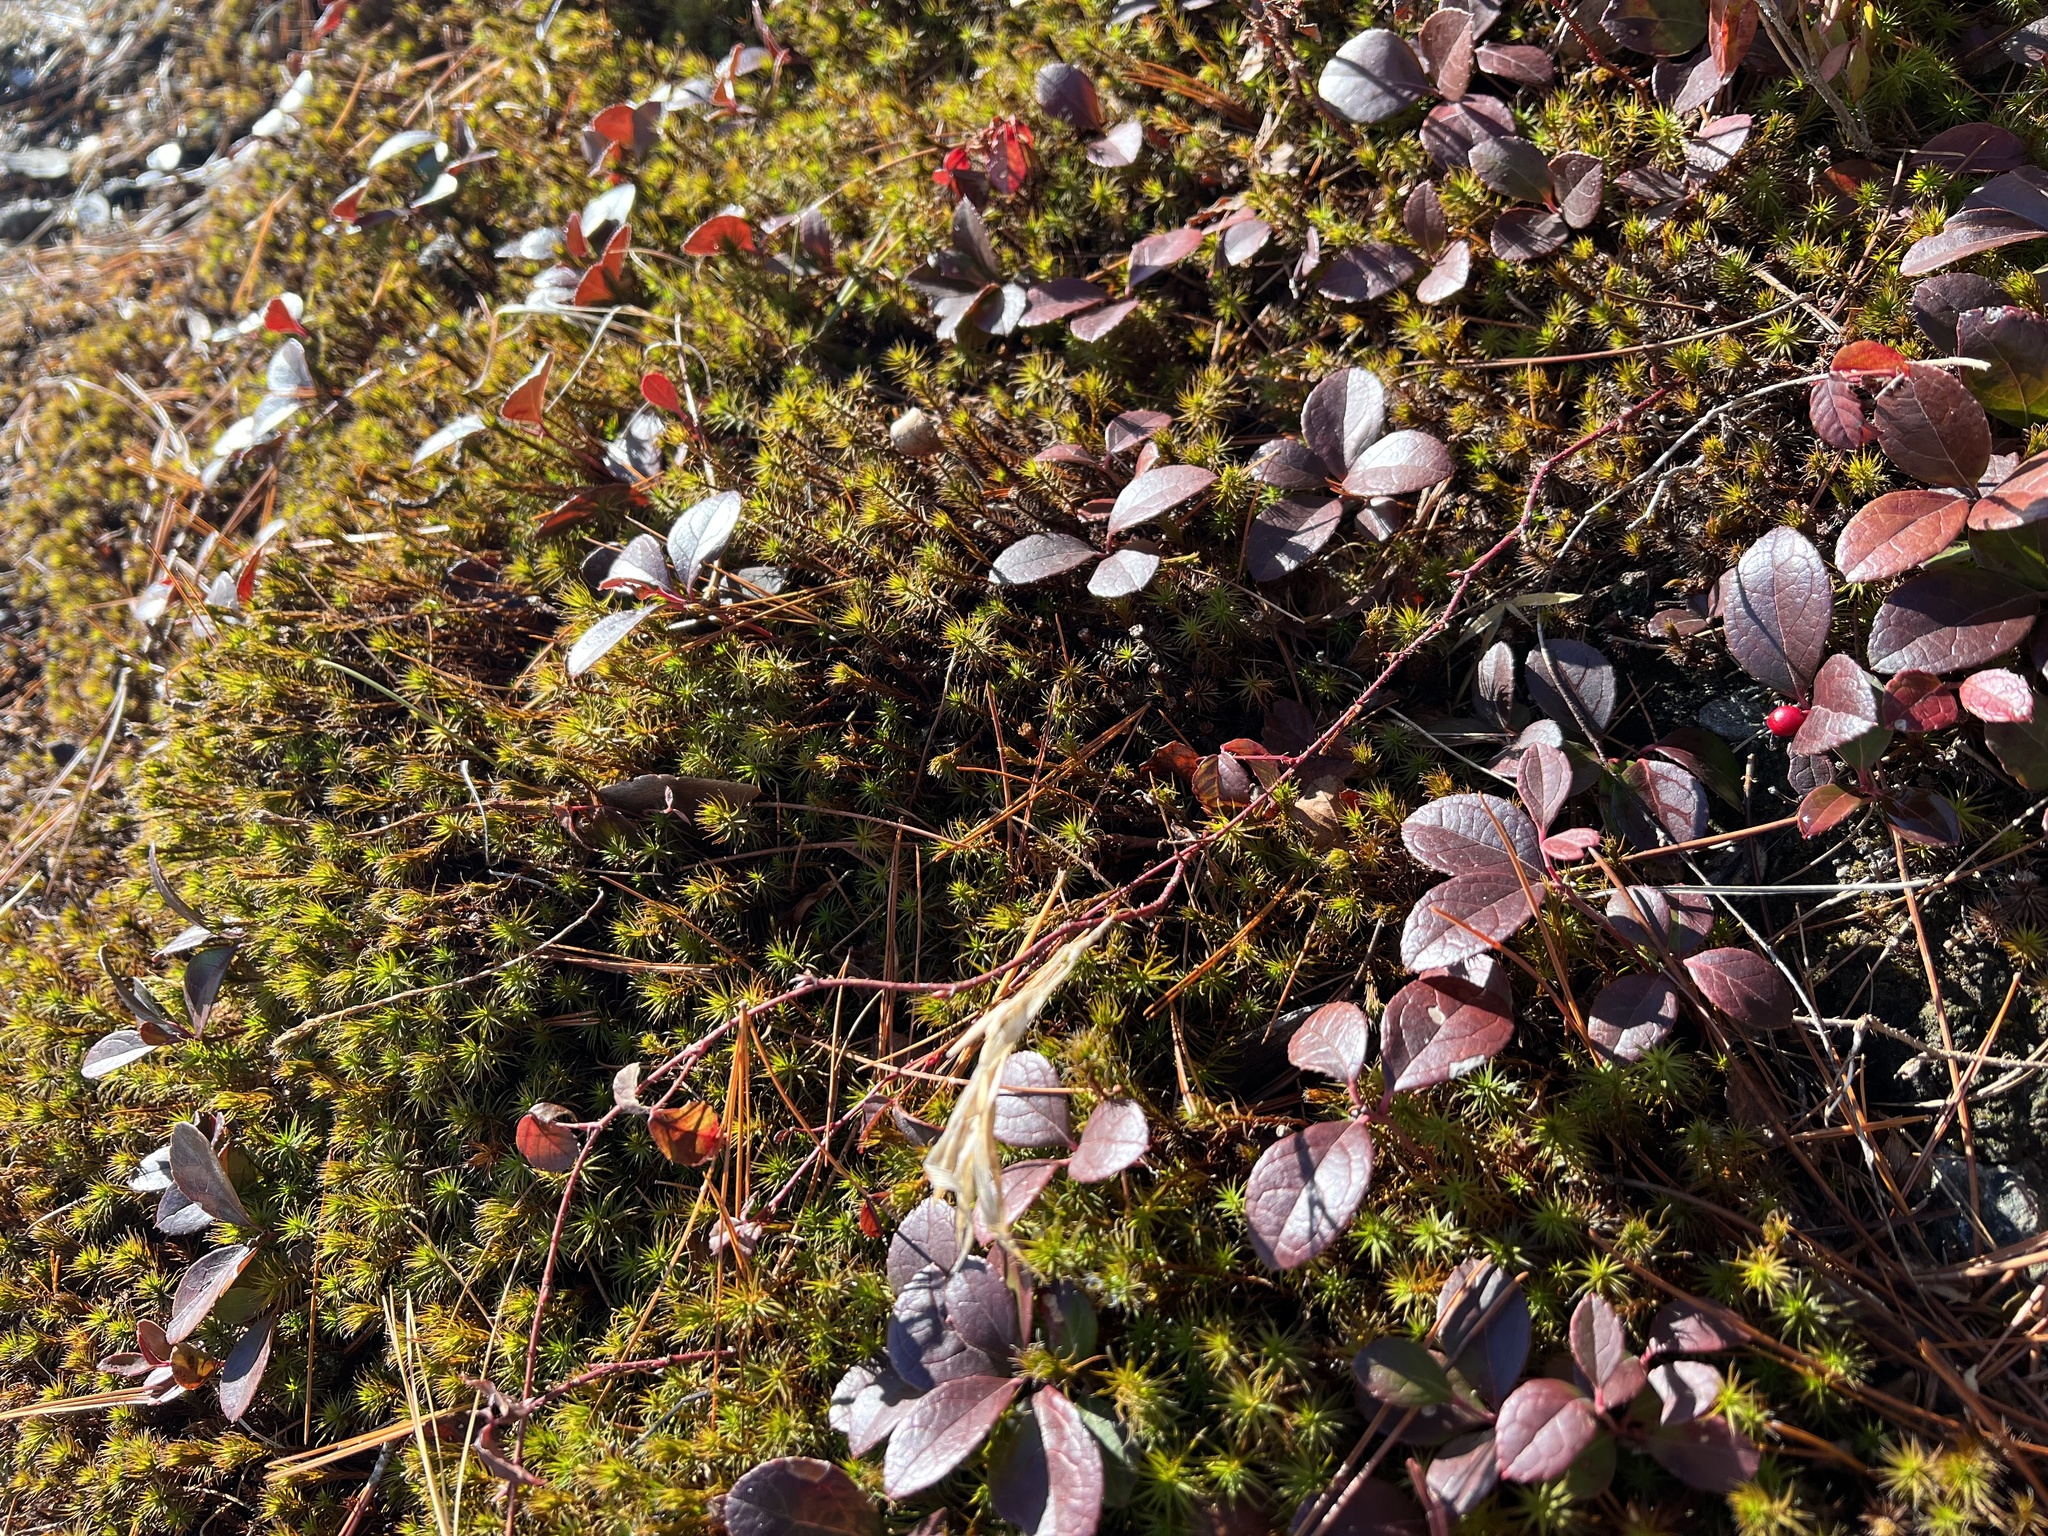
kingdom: Plantae
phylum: Tracheophyta
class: Magnoliopsida
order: Ericales
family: Ericaceae
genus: Gaultheria
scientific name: Gaultheria procumbens
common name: Checkerberry
